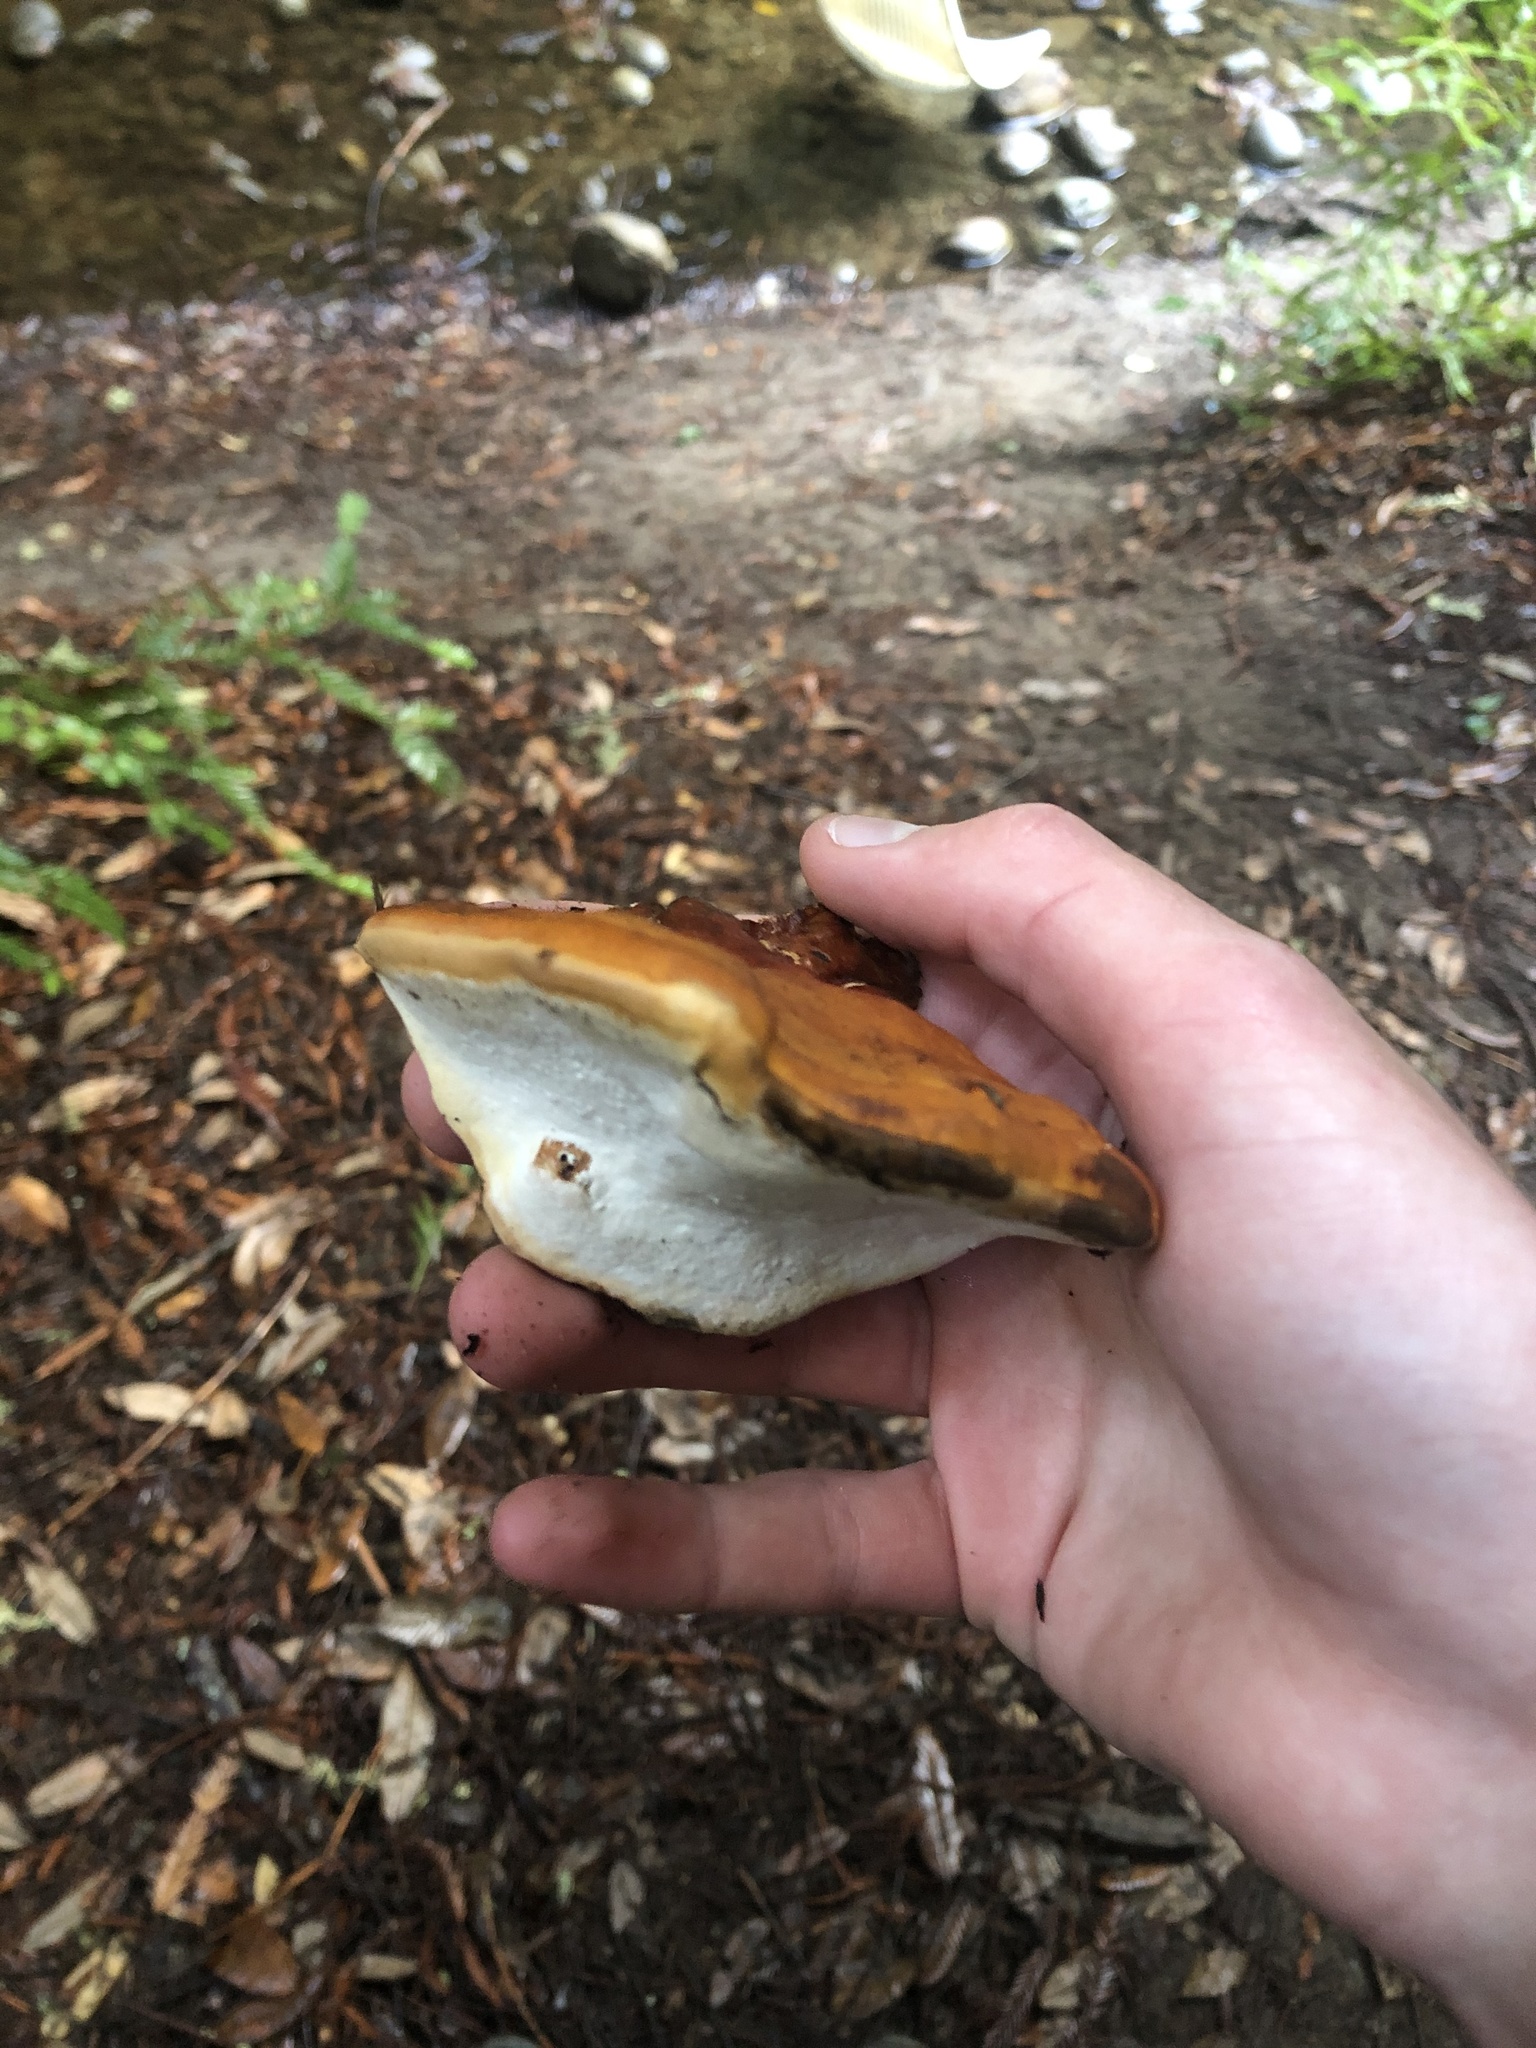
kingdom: Fungi
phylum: Basidiomycota
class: Agaricomycetes
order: Polyporales
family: Polyporaceae
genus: Ganoderma
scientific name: Ganoderma polychromum
